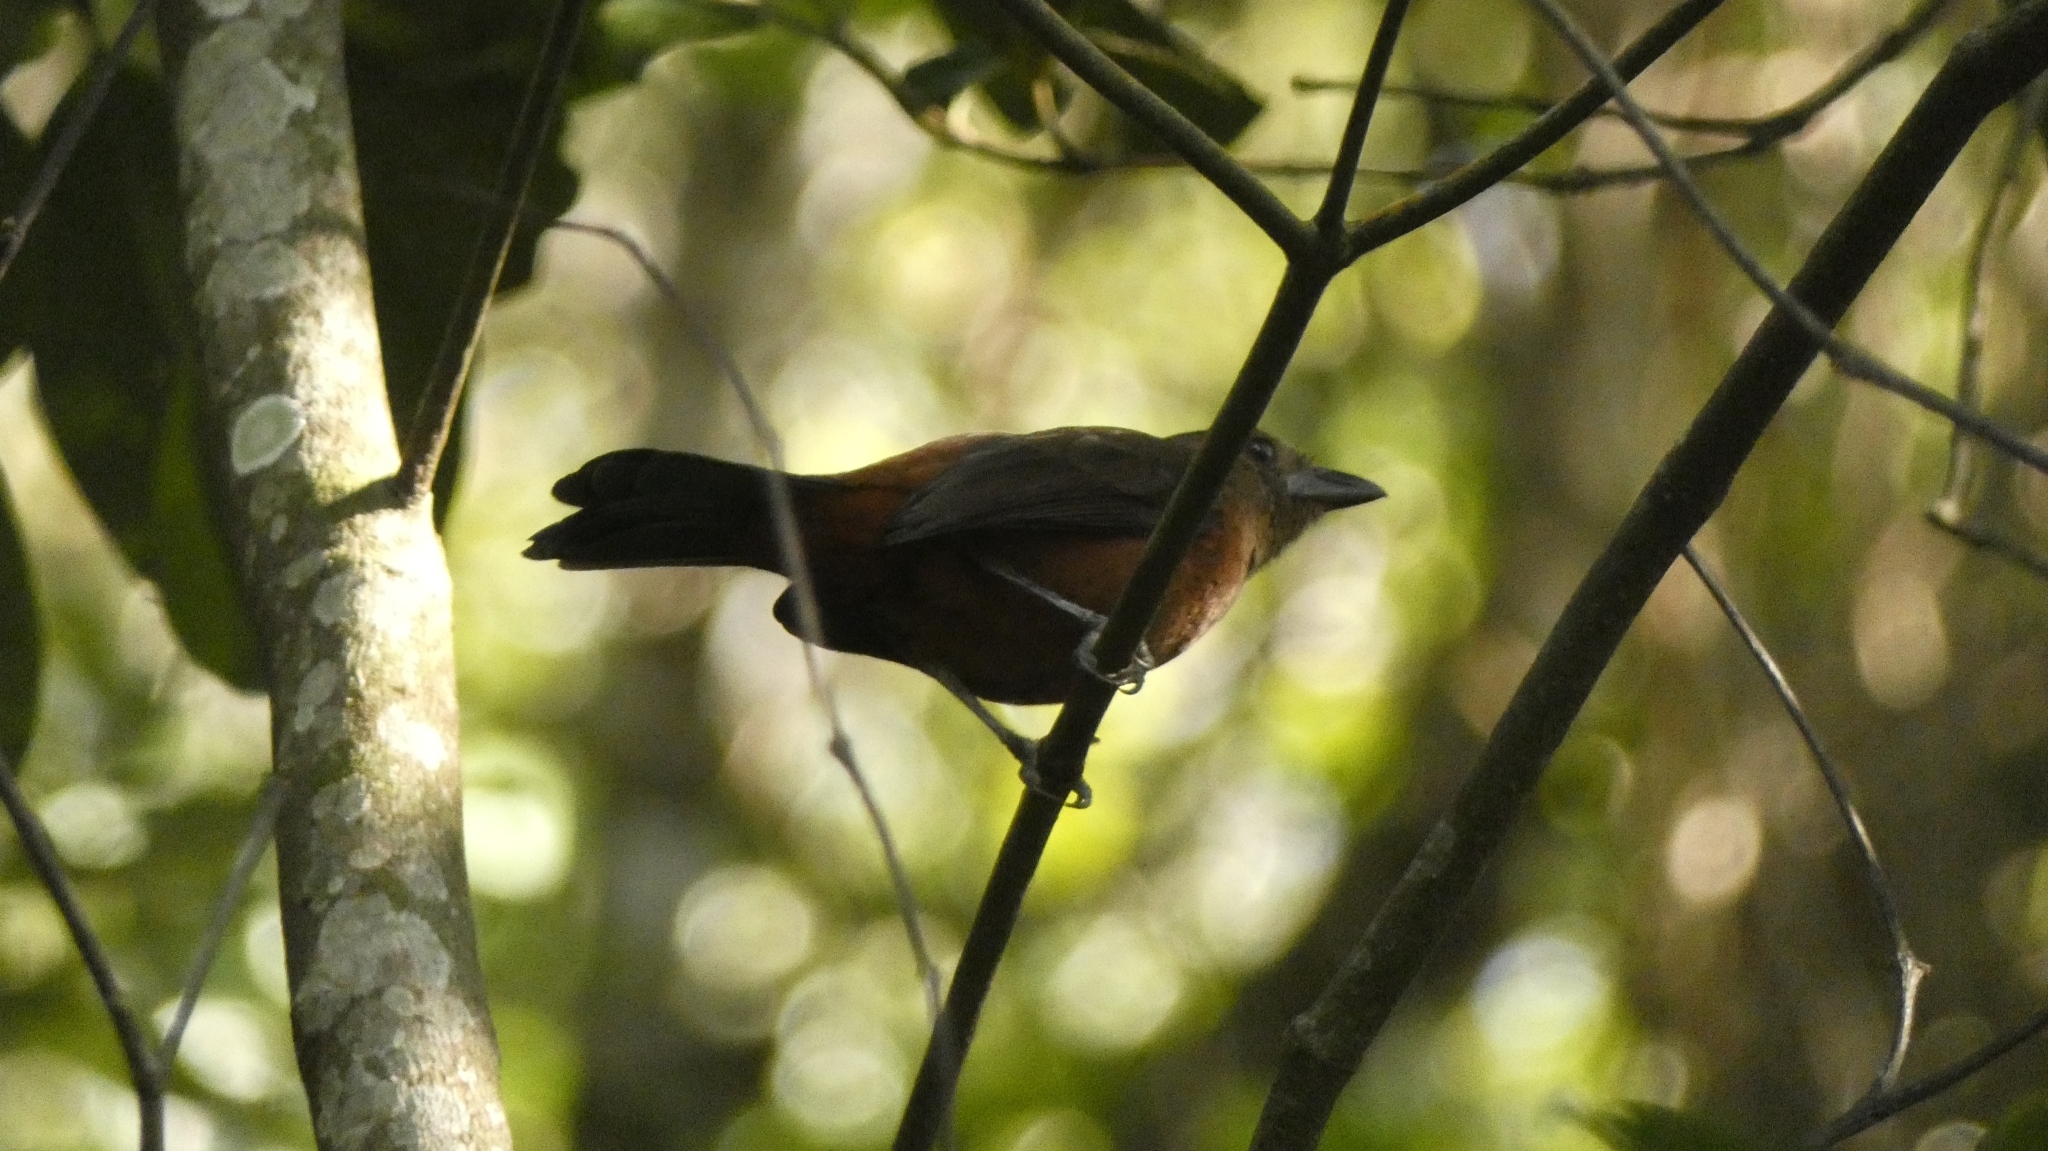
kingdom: Animalia
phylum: Chordata
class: Aves
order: Passeriformes
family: Thraupidae
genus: Ramphocelus
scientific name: Ramphocelus bresilia
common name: Brazilian tanager
